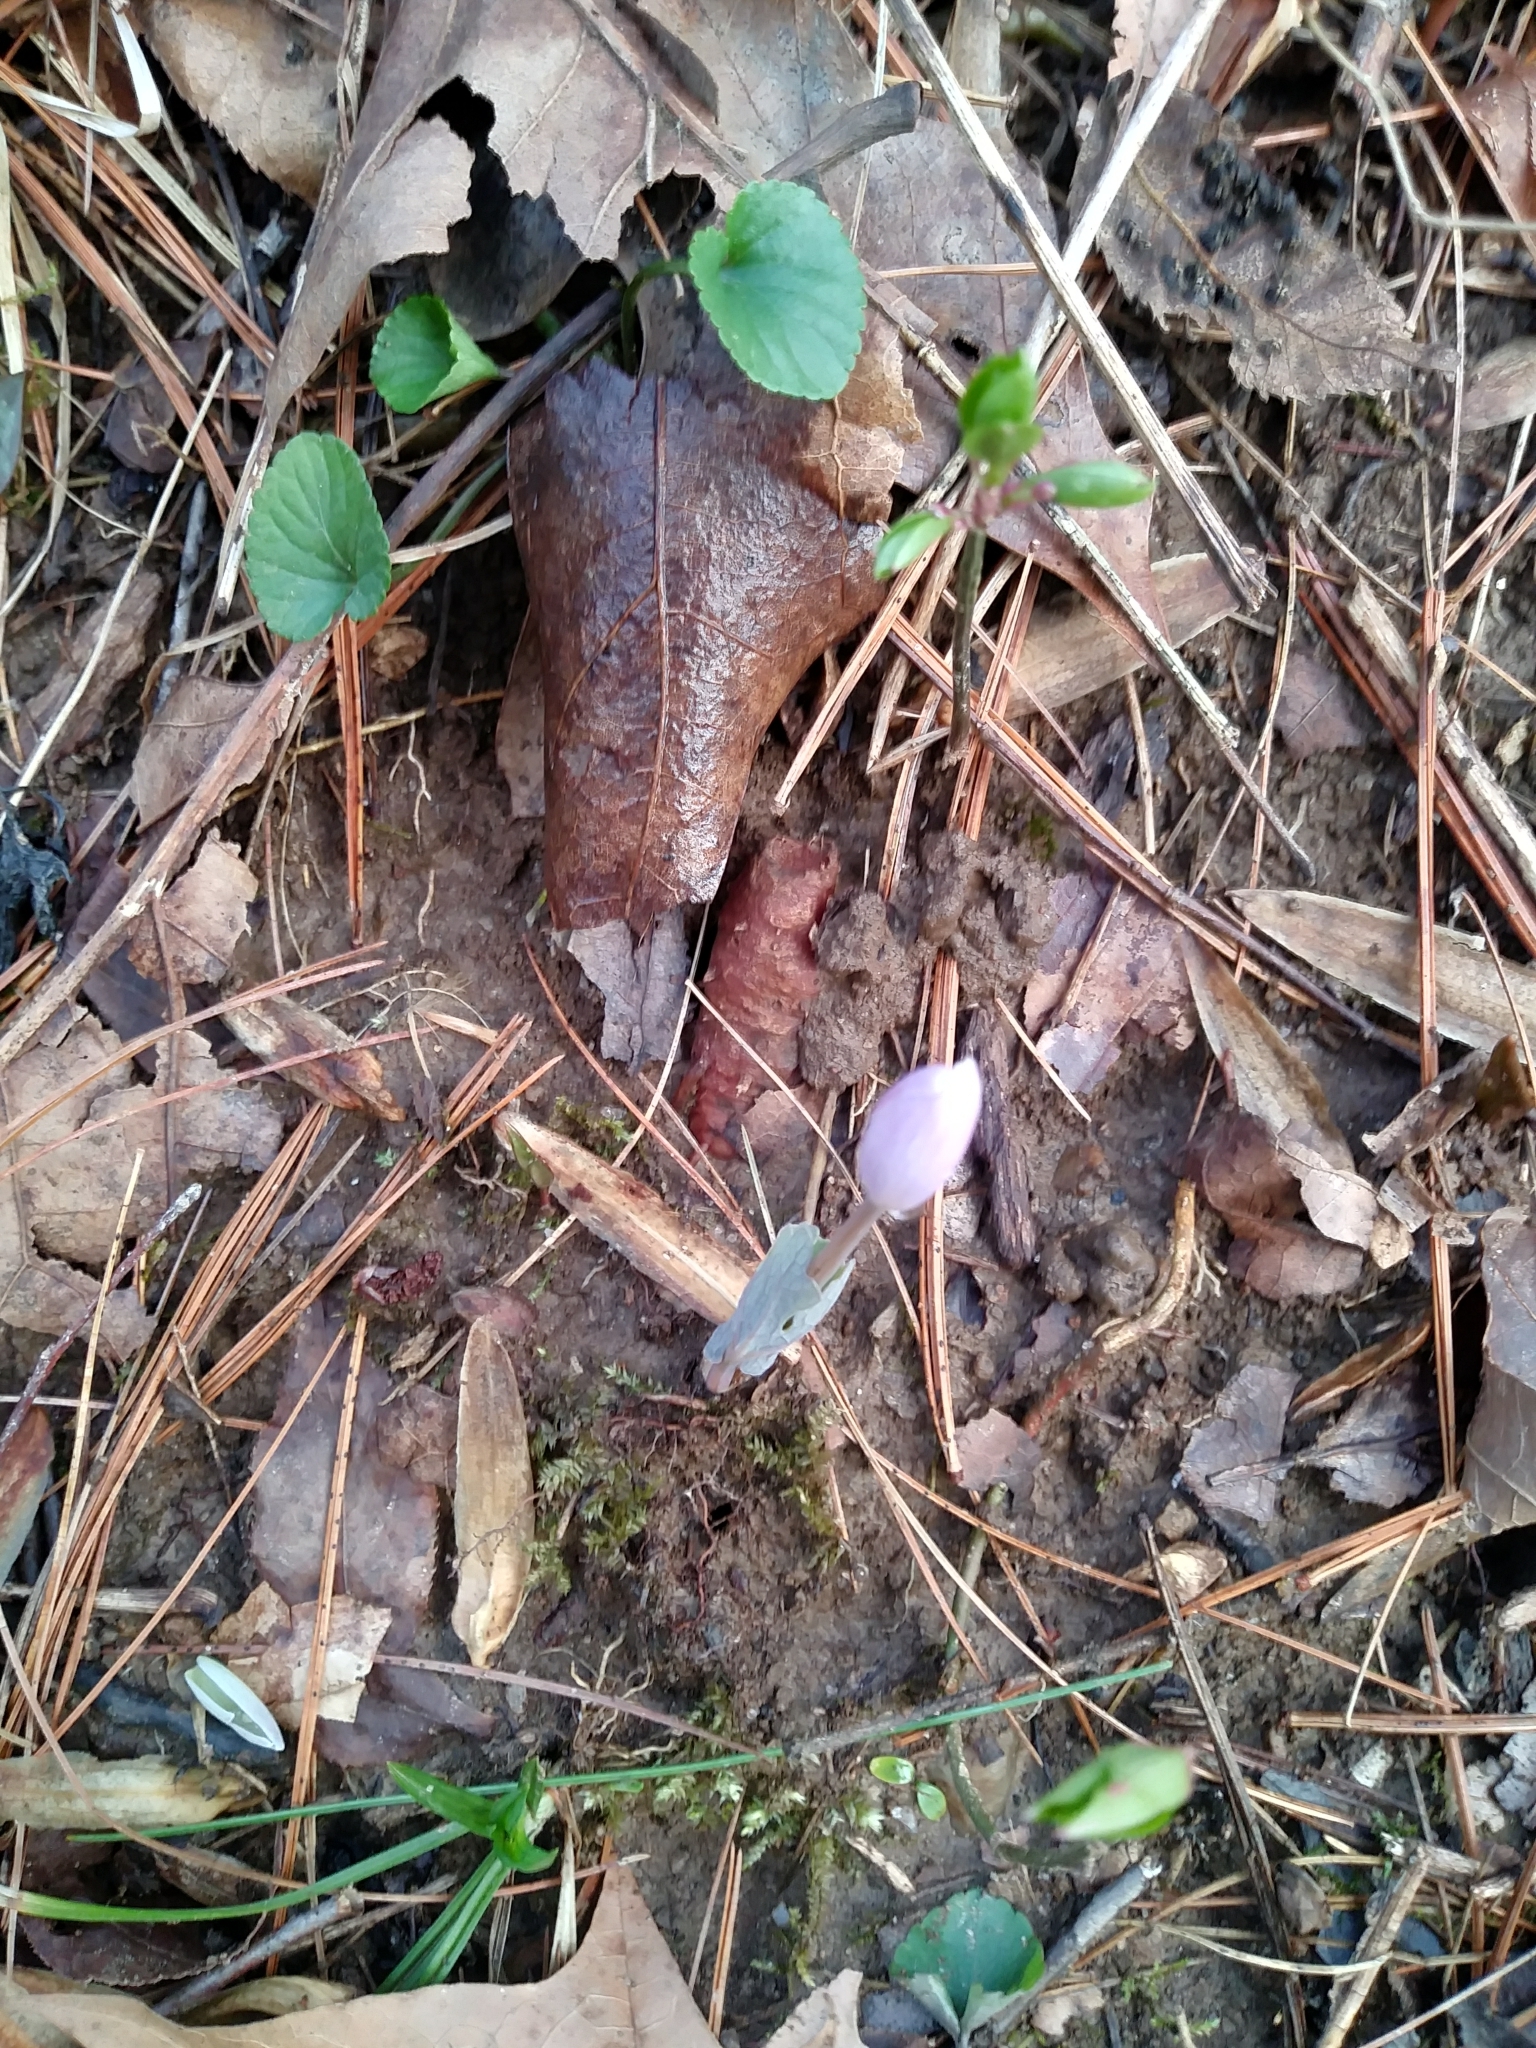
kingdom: Plantae
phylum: Tracheophyta
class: Magnoliopsida
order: Ranunculales
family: Papaveraceae
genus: Sanguinaria
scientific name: Sanguinaria canadensis
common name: Bloodroot
